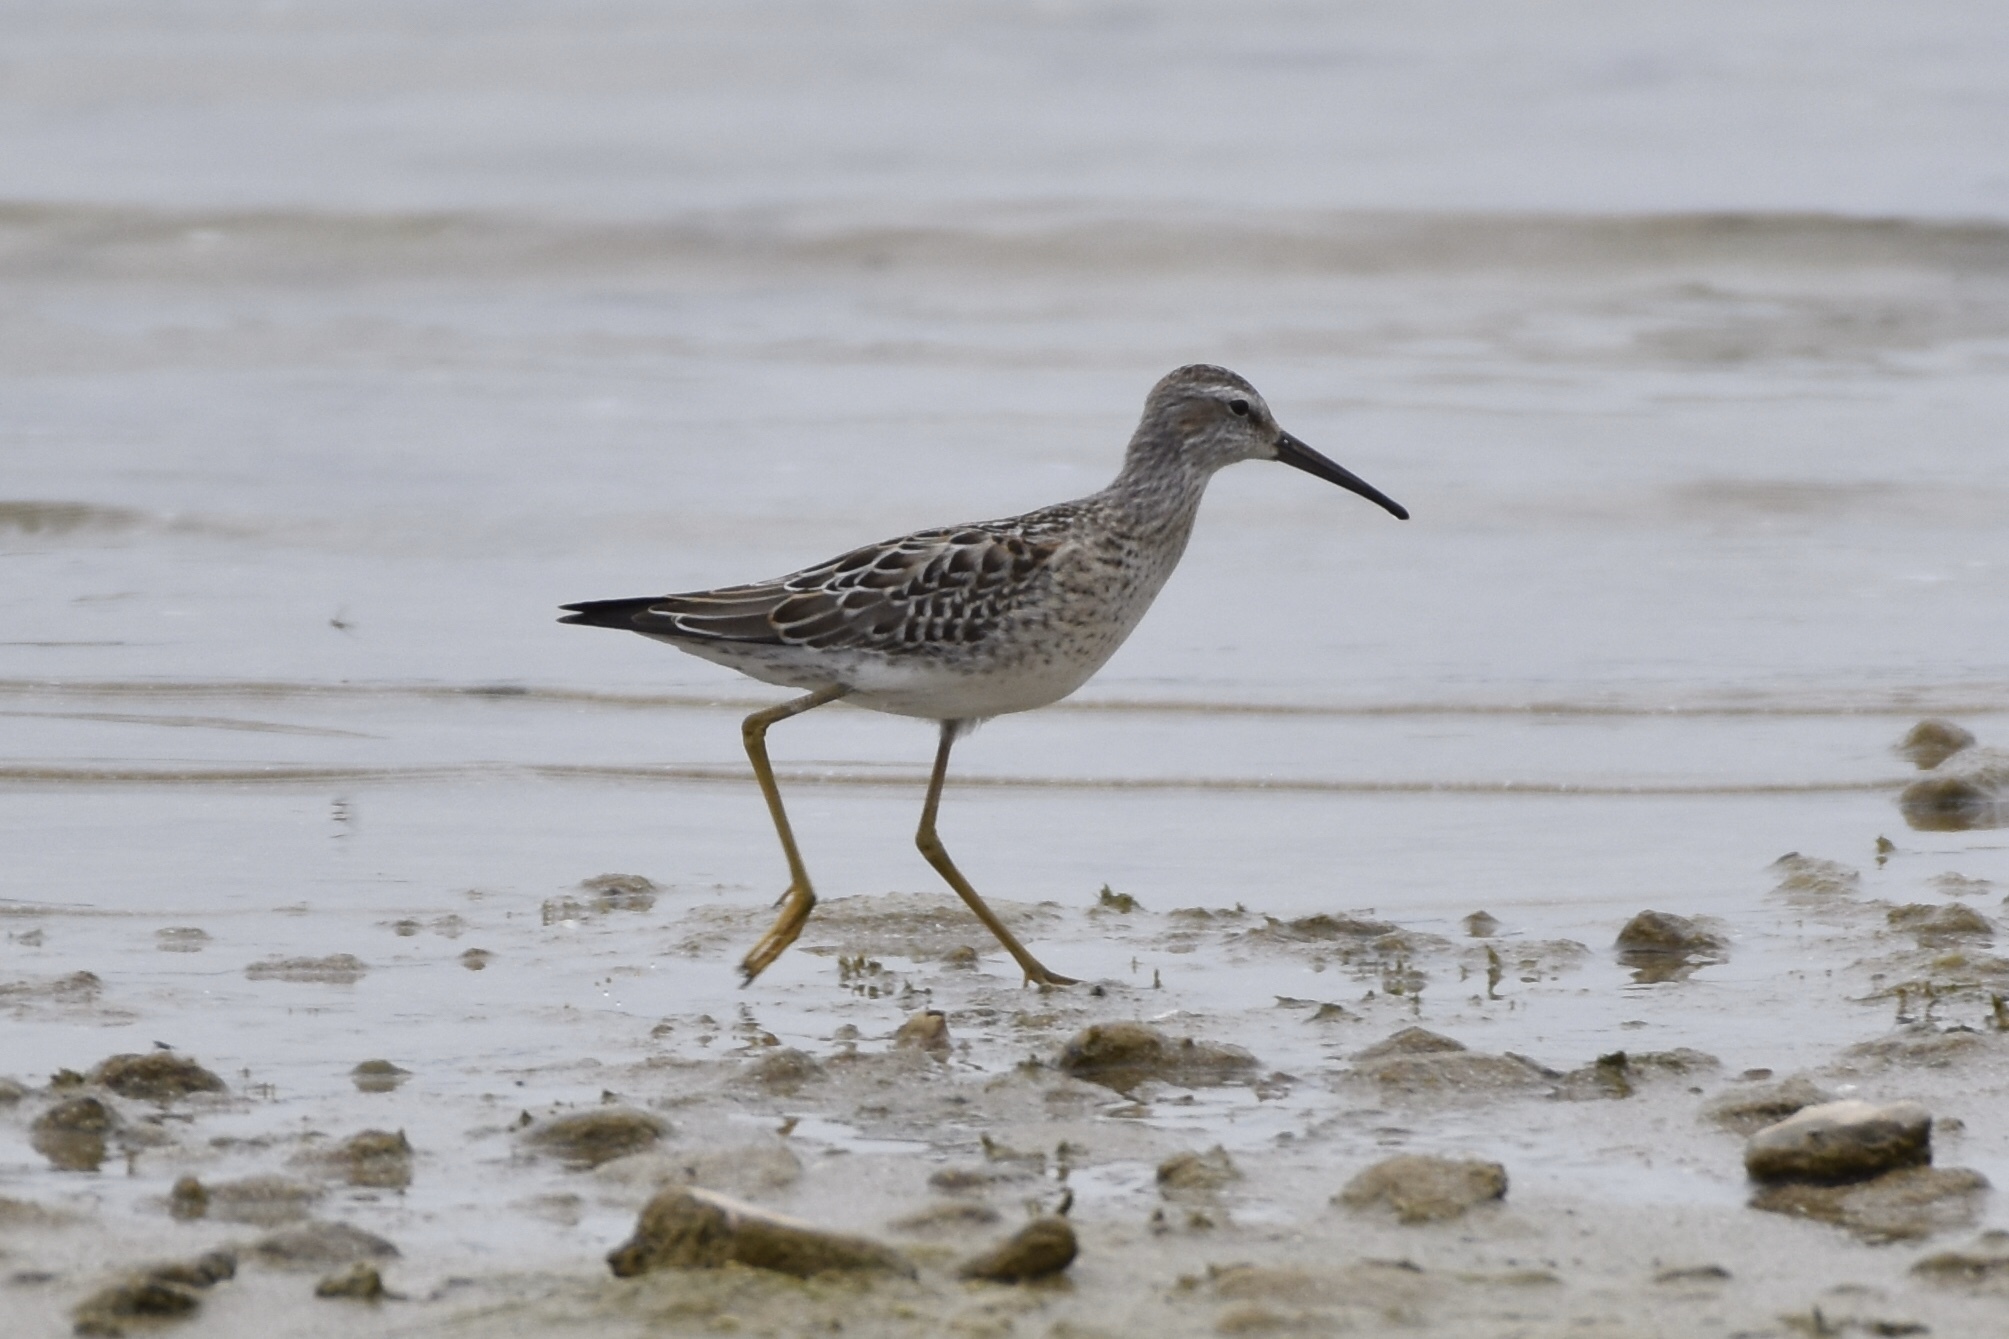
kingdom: Animalia
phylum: Chordata
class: Aves
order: Charadriiformes
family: Scolopacidae
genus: Calidris
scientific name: Calidris himantopus
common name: Stilt sandpiper
